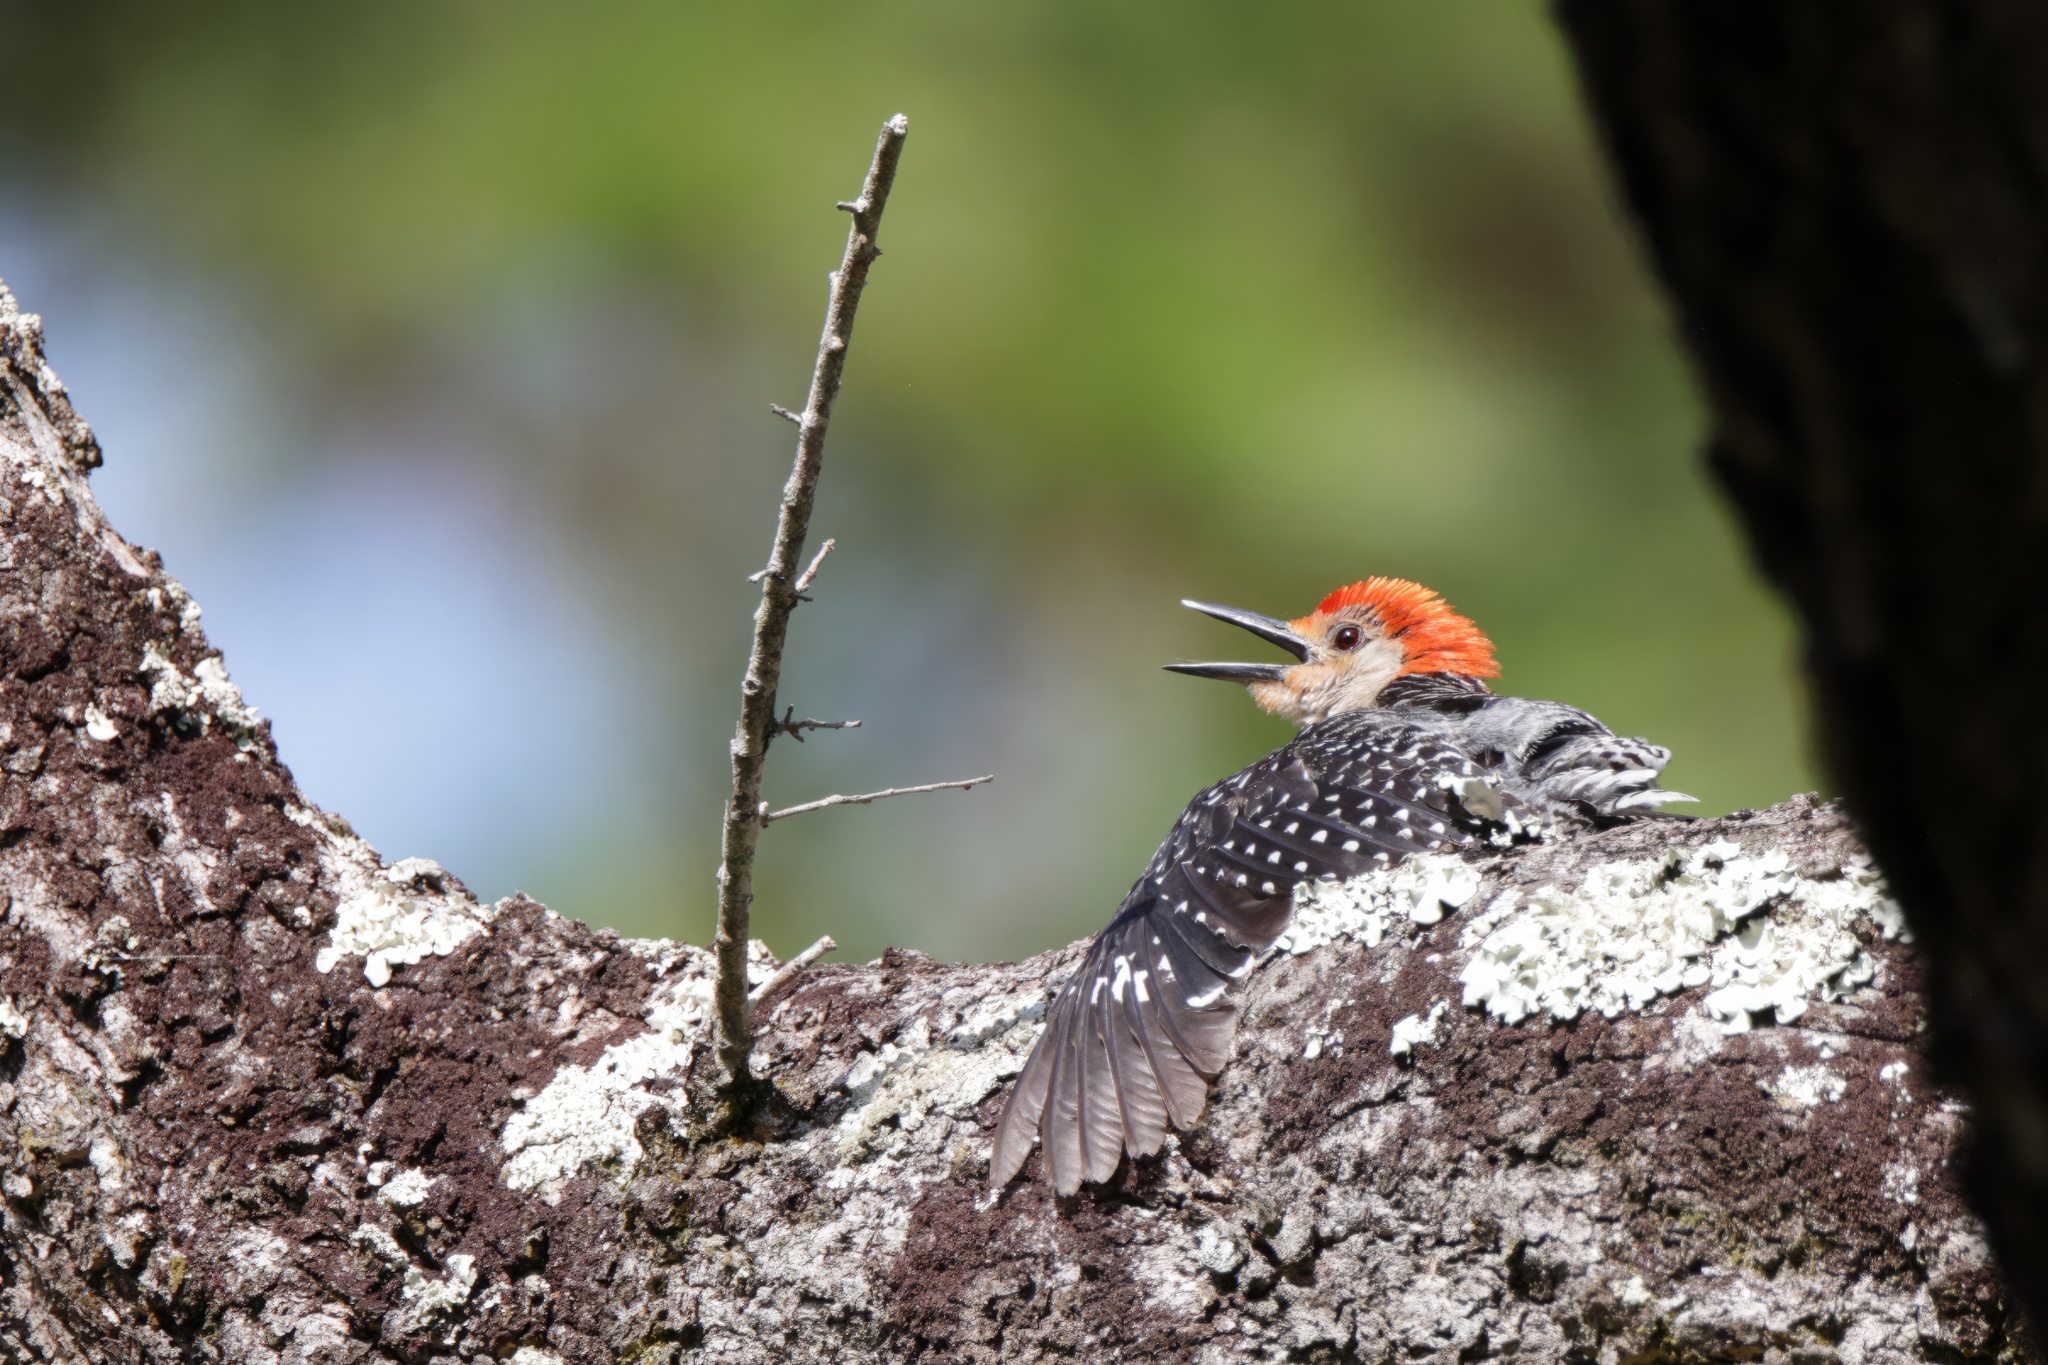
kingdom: Animalia
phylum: Chordata
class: Aves
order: Piciformes
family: Picidae
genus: Melanerpes
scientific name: Melanerpes carolinus
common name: Red-bellied woodpecker
